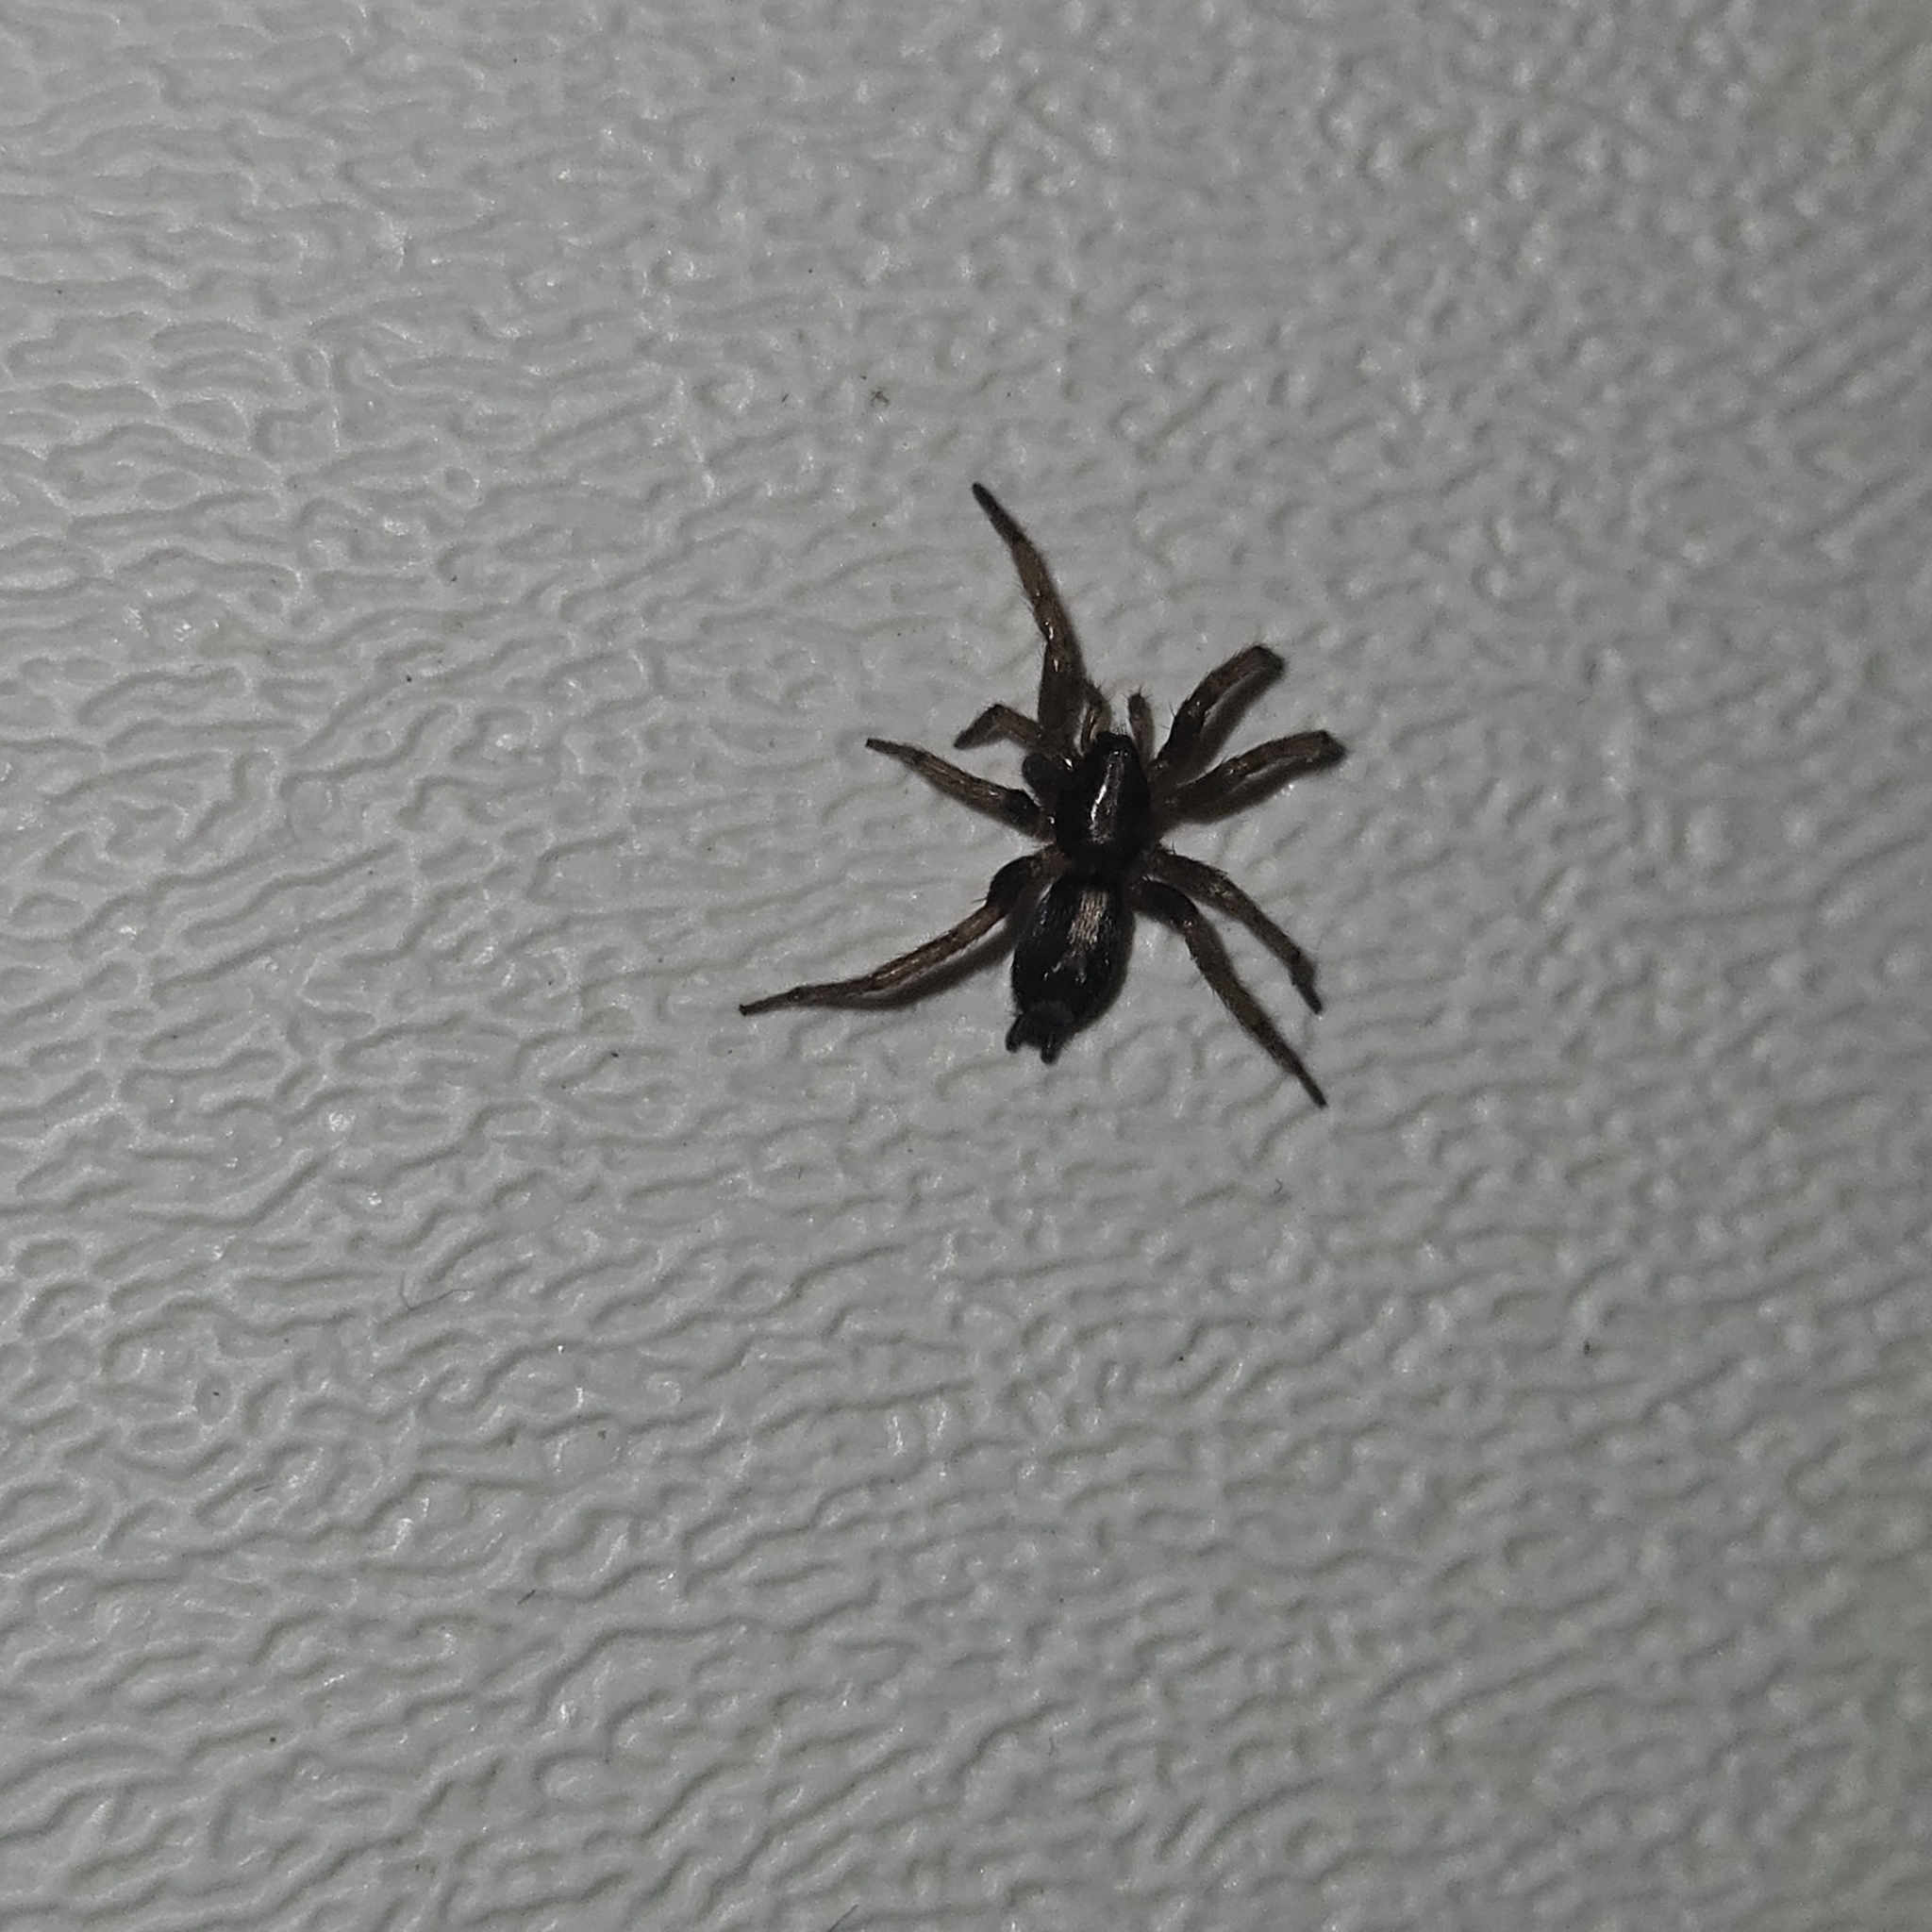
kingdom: Animalia
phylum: Arthropoda
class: Arachnida
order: Araneae
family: Gnaphosidae
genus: Herpyllus
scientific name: Herpyllus ecclesiasticus
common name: Eastern parson spider
